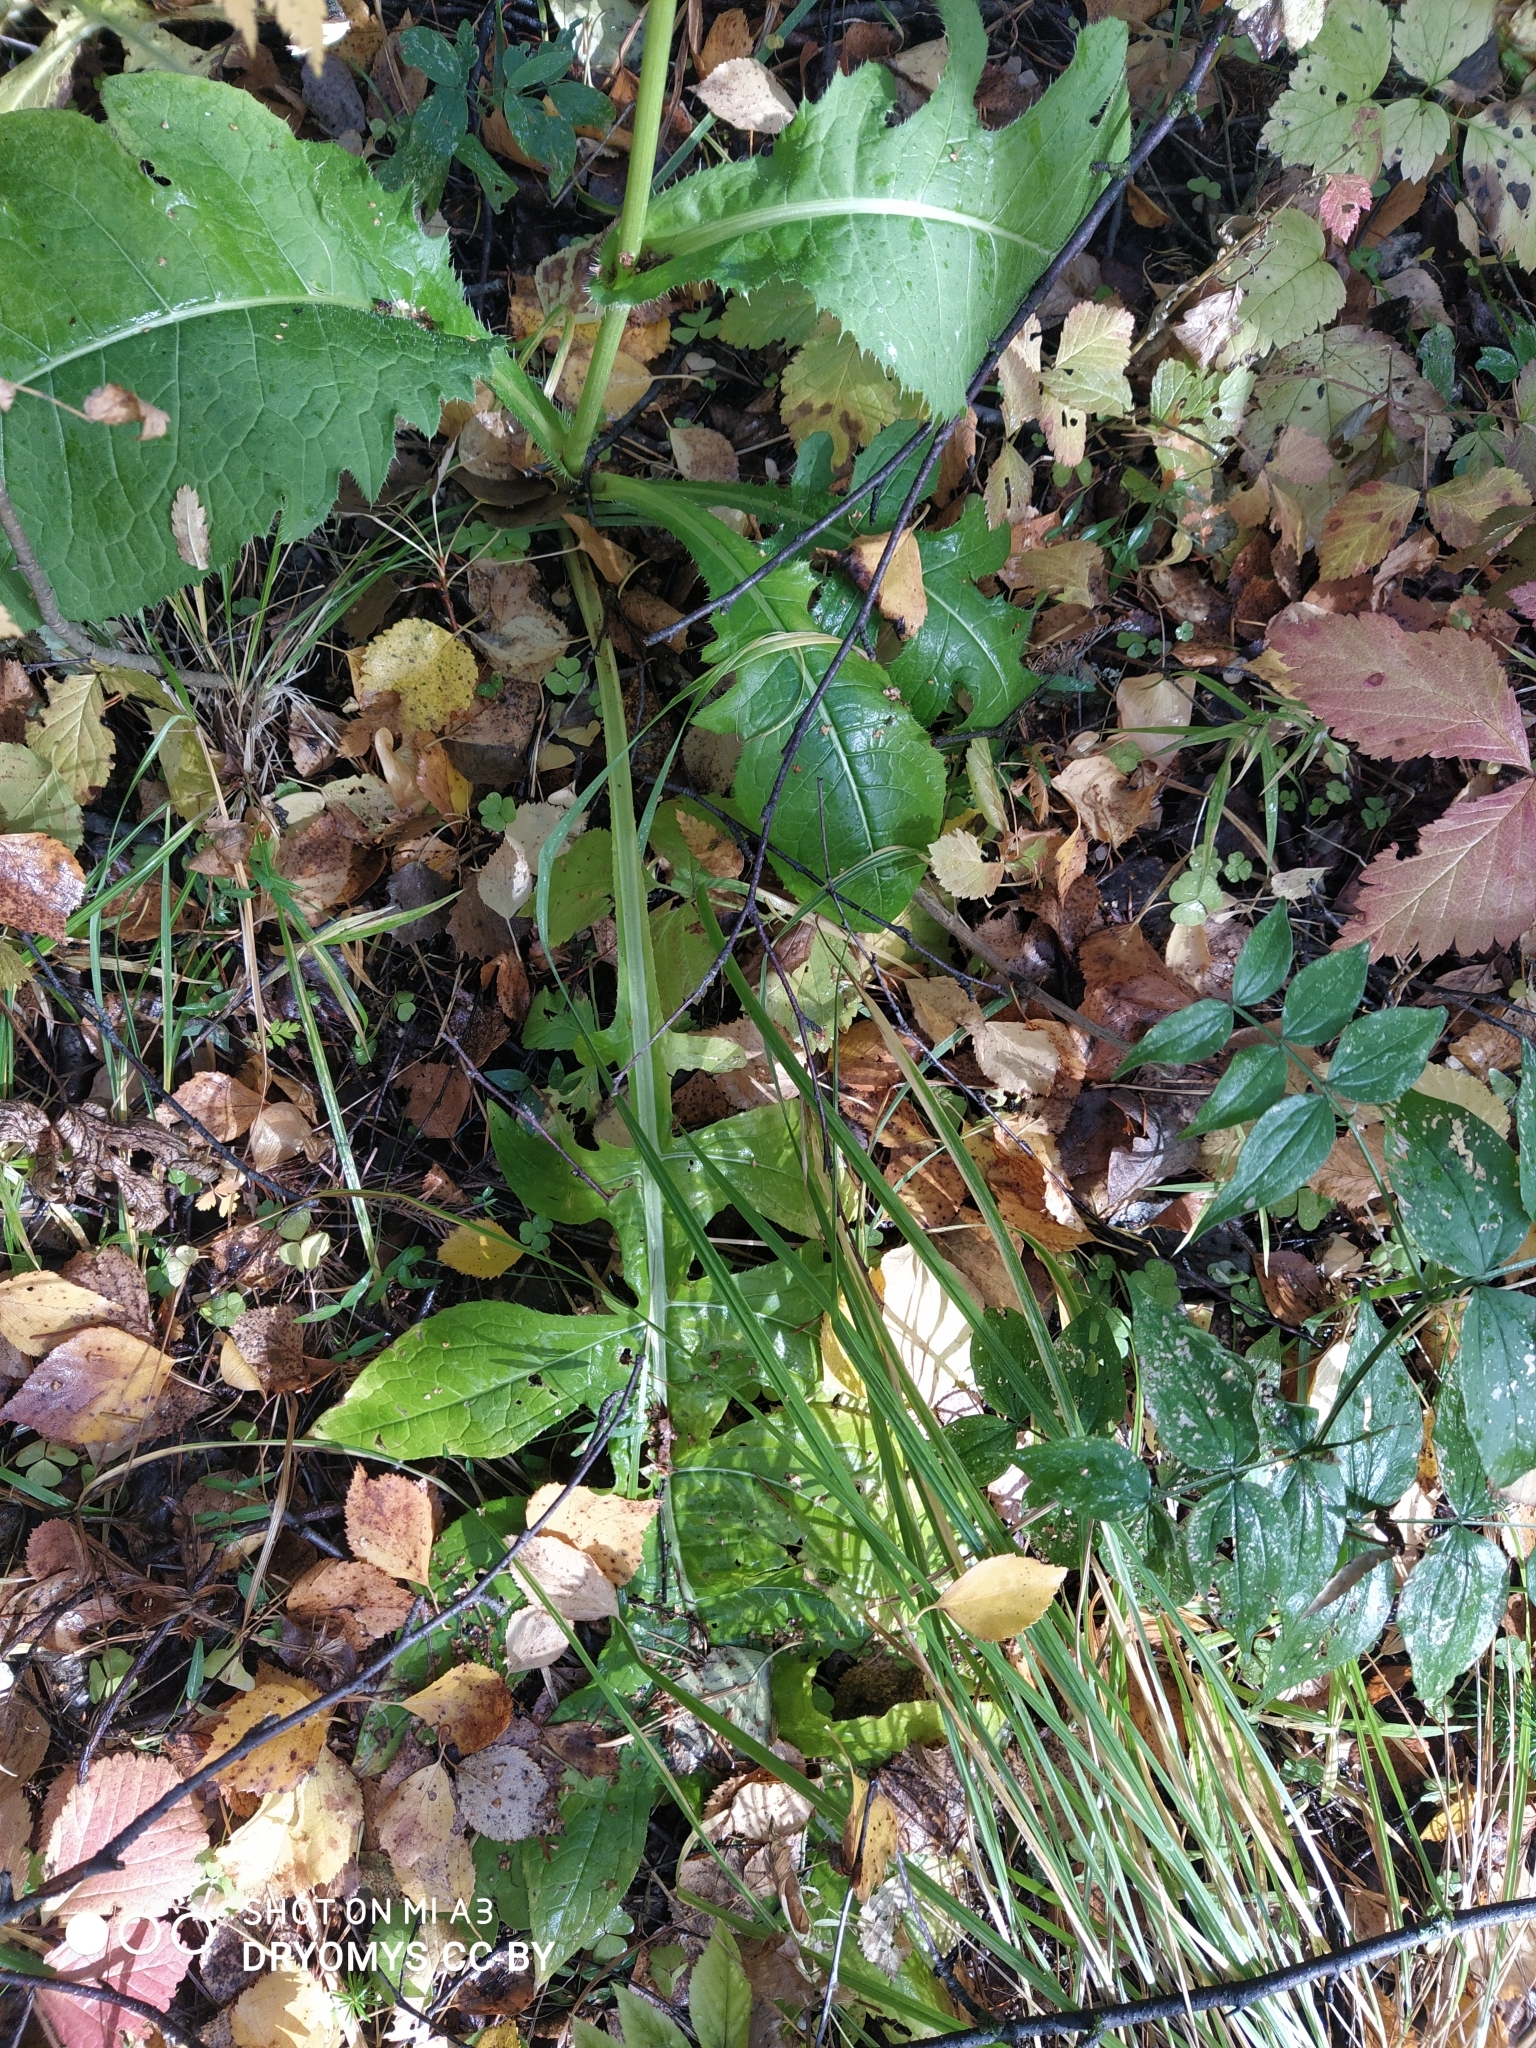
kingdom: Plantae
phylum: Tracheophyta
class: Magnoliopsida
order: Asterales
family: Asteraceae
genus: Cirsium
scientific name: Cirsium oleraceum
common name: Cabbage thistle
